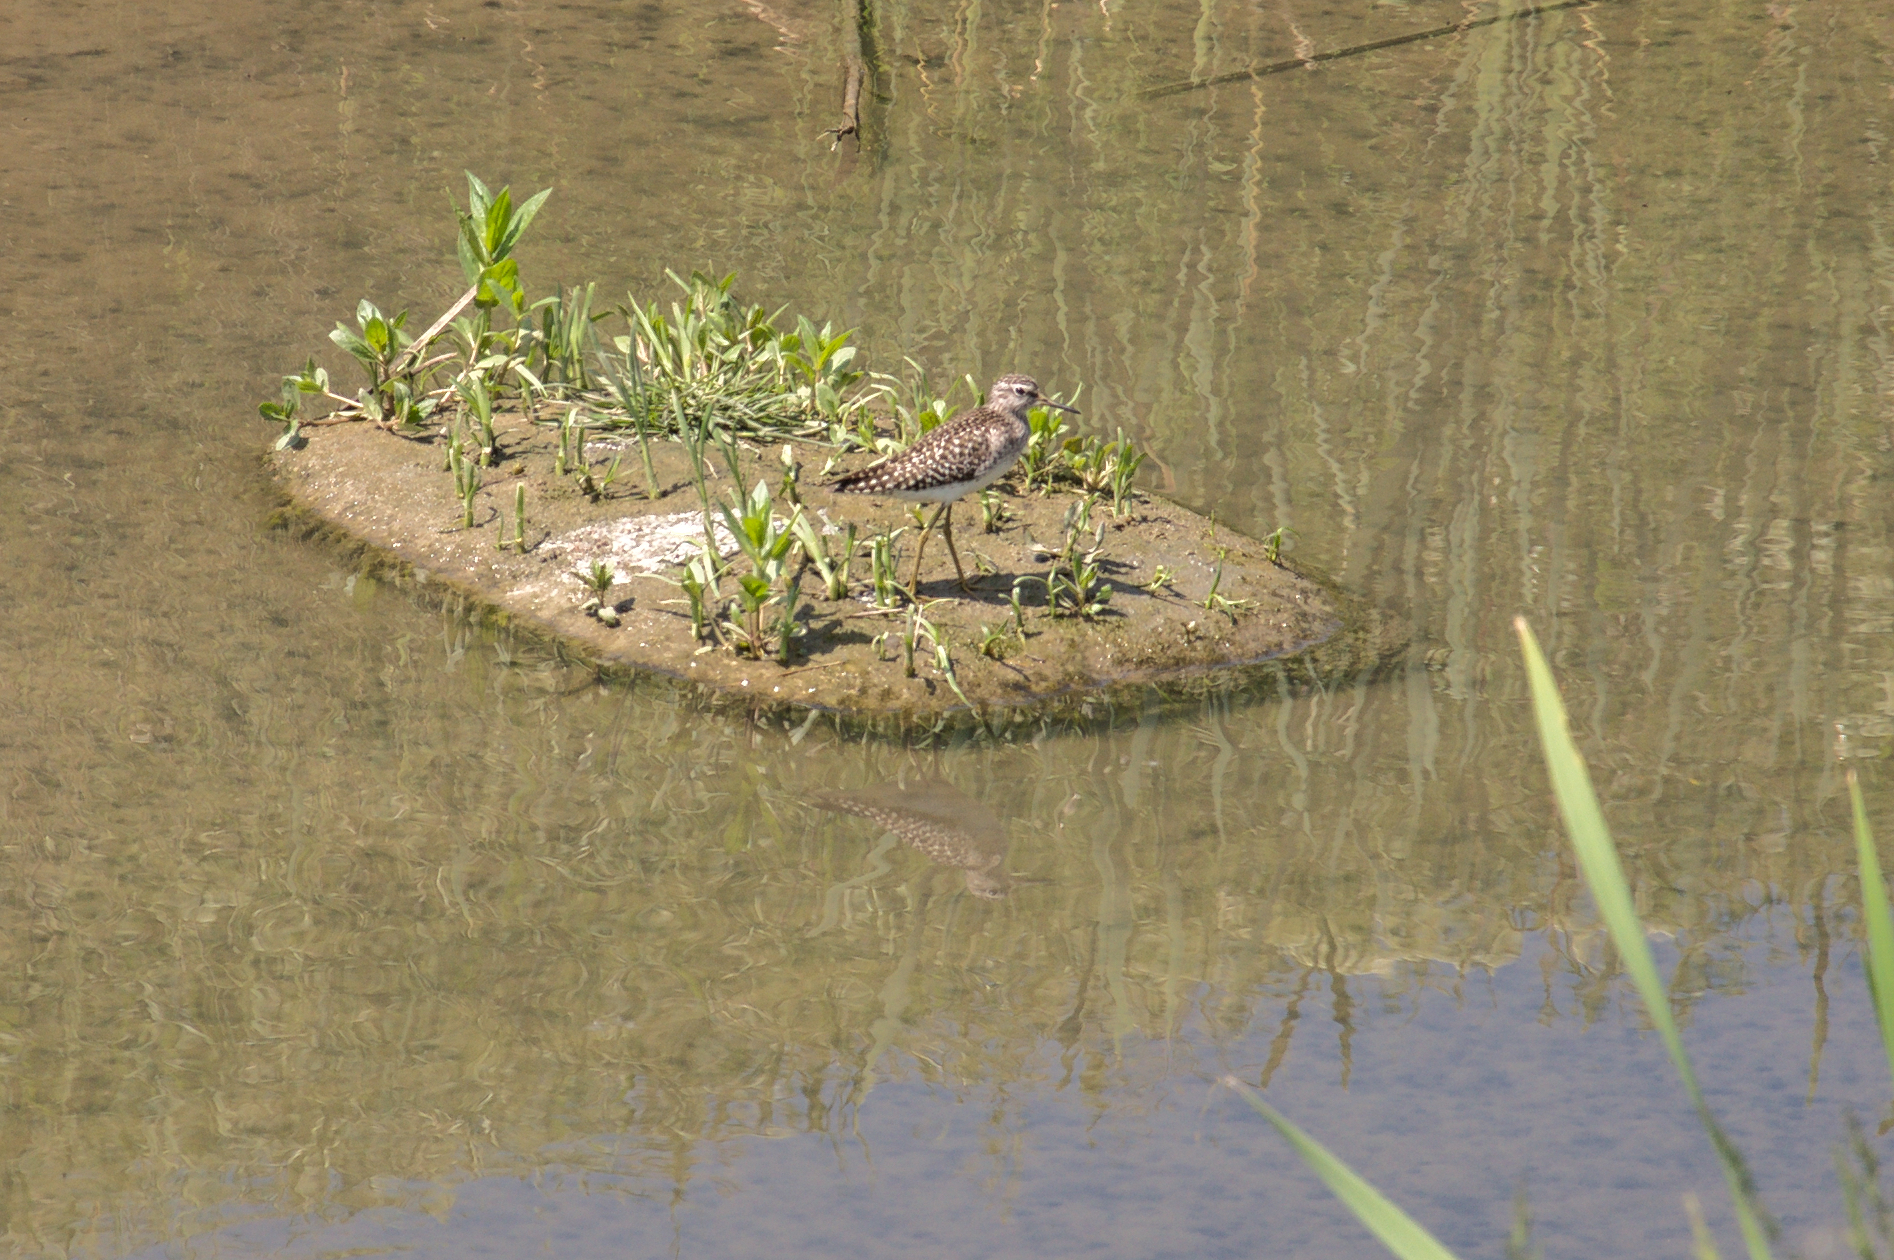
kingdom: Animalia
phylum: Chordata
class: Aves
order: Charadriiformes
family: Scolopacidae
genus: Tringa
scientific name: Tringa glareola
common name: Wood sandpiper
